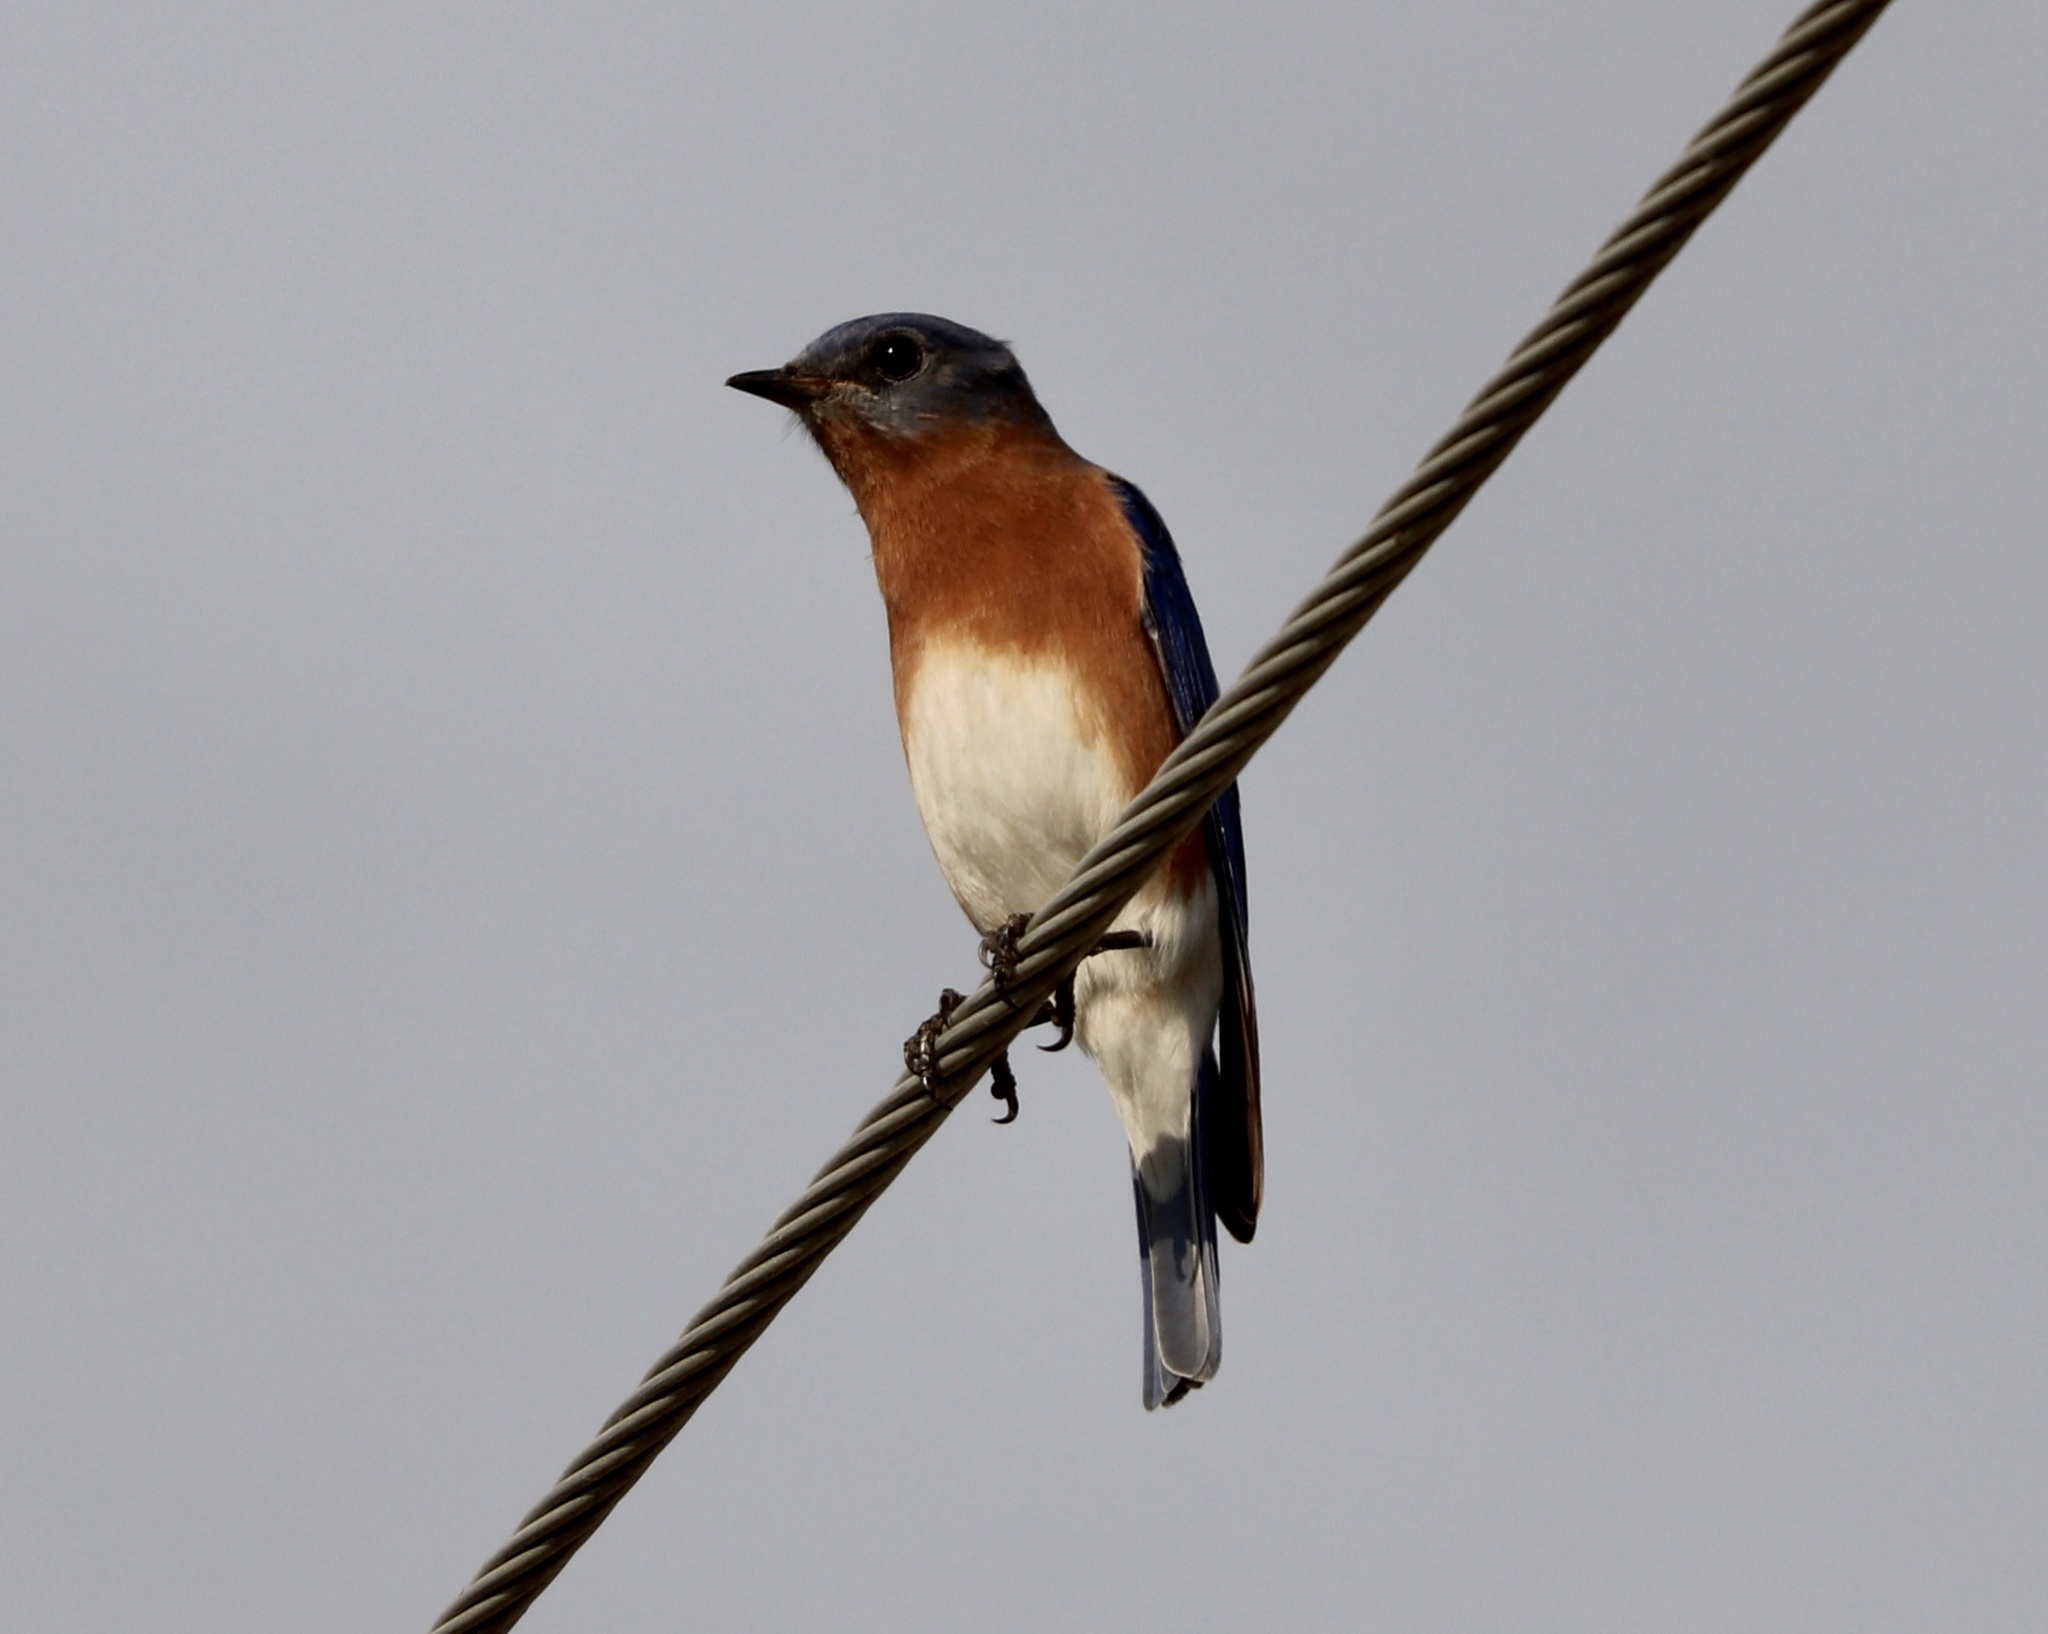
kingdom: Animalia
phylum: Chordata
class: Aves
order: Passeriformes
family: Turdidae
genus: Sialia
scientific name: Sialia sialis
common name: Eastern bluebird
